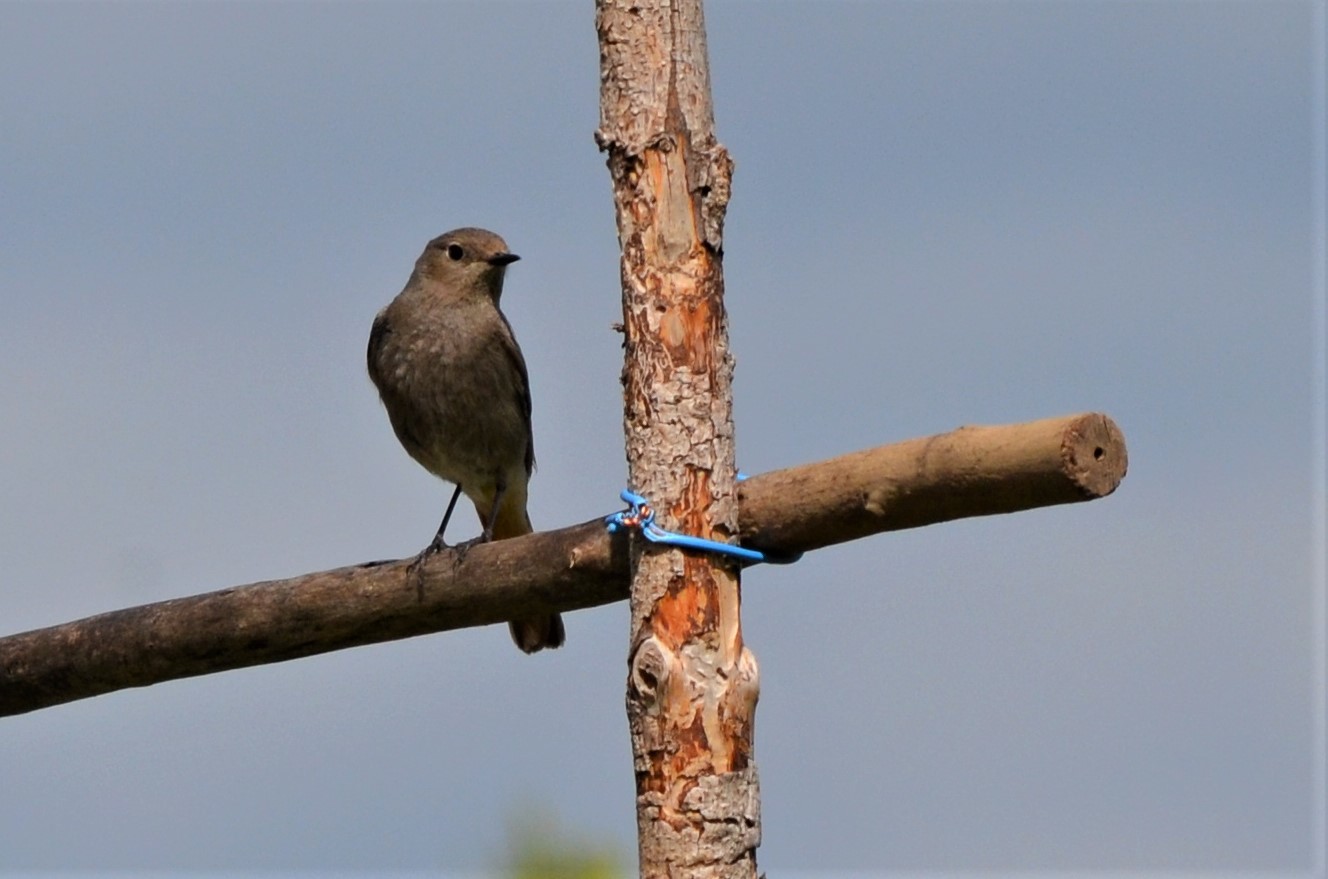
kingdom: Animalia
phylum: Chordata
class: Aves
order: Passeriformes
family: Muscicapidae
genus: Phoenicurus
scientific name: Phoenicurus ochruros
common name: Black redstart
